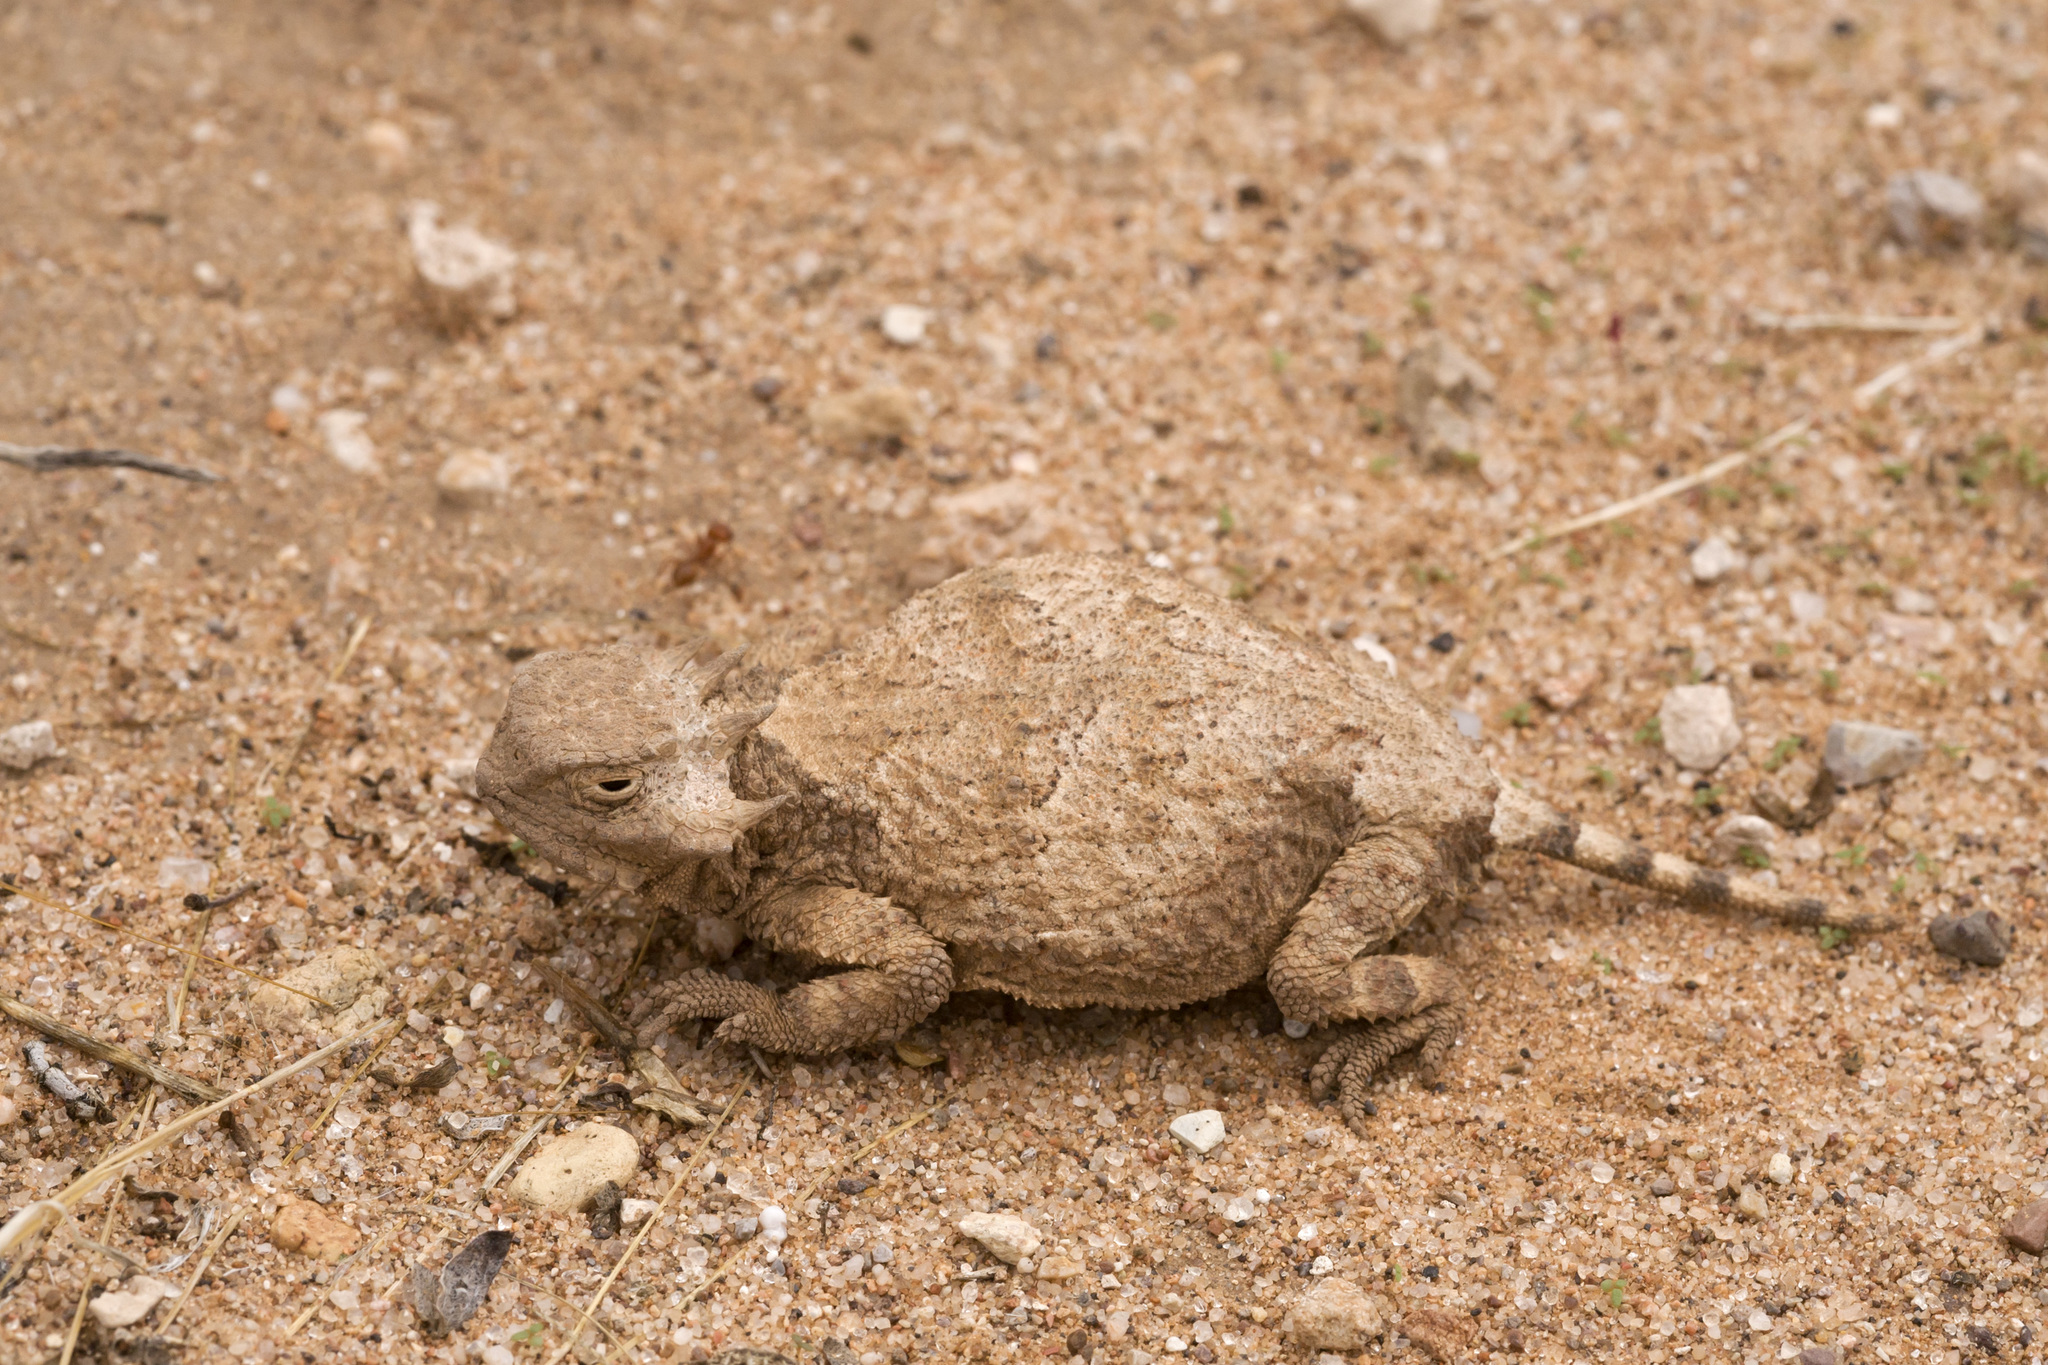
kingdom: Animalia
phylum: Chordata
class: Squamata
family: Phrynosomatidae
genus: Phrynosoma
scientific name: Phrynosoma modestum
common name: Roundtail horned lizard
